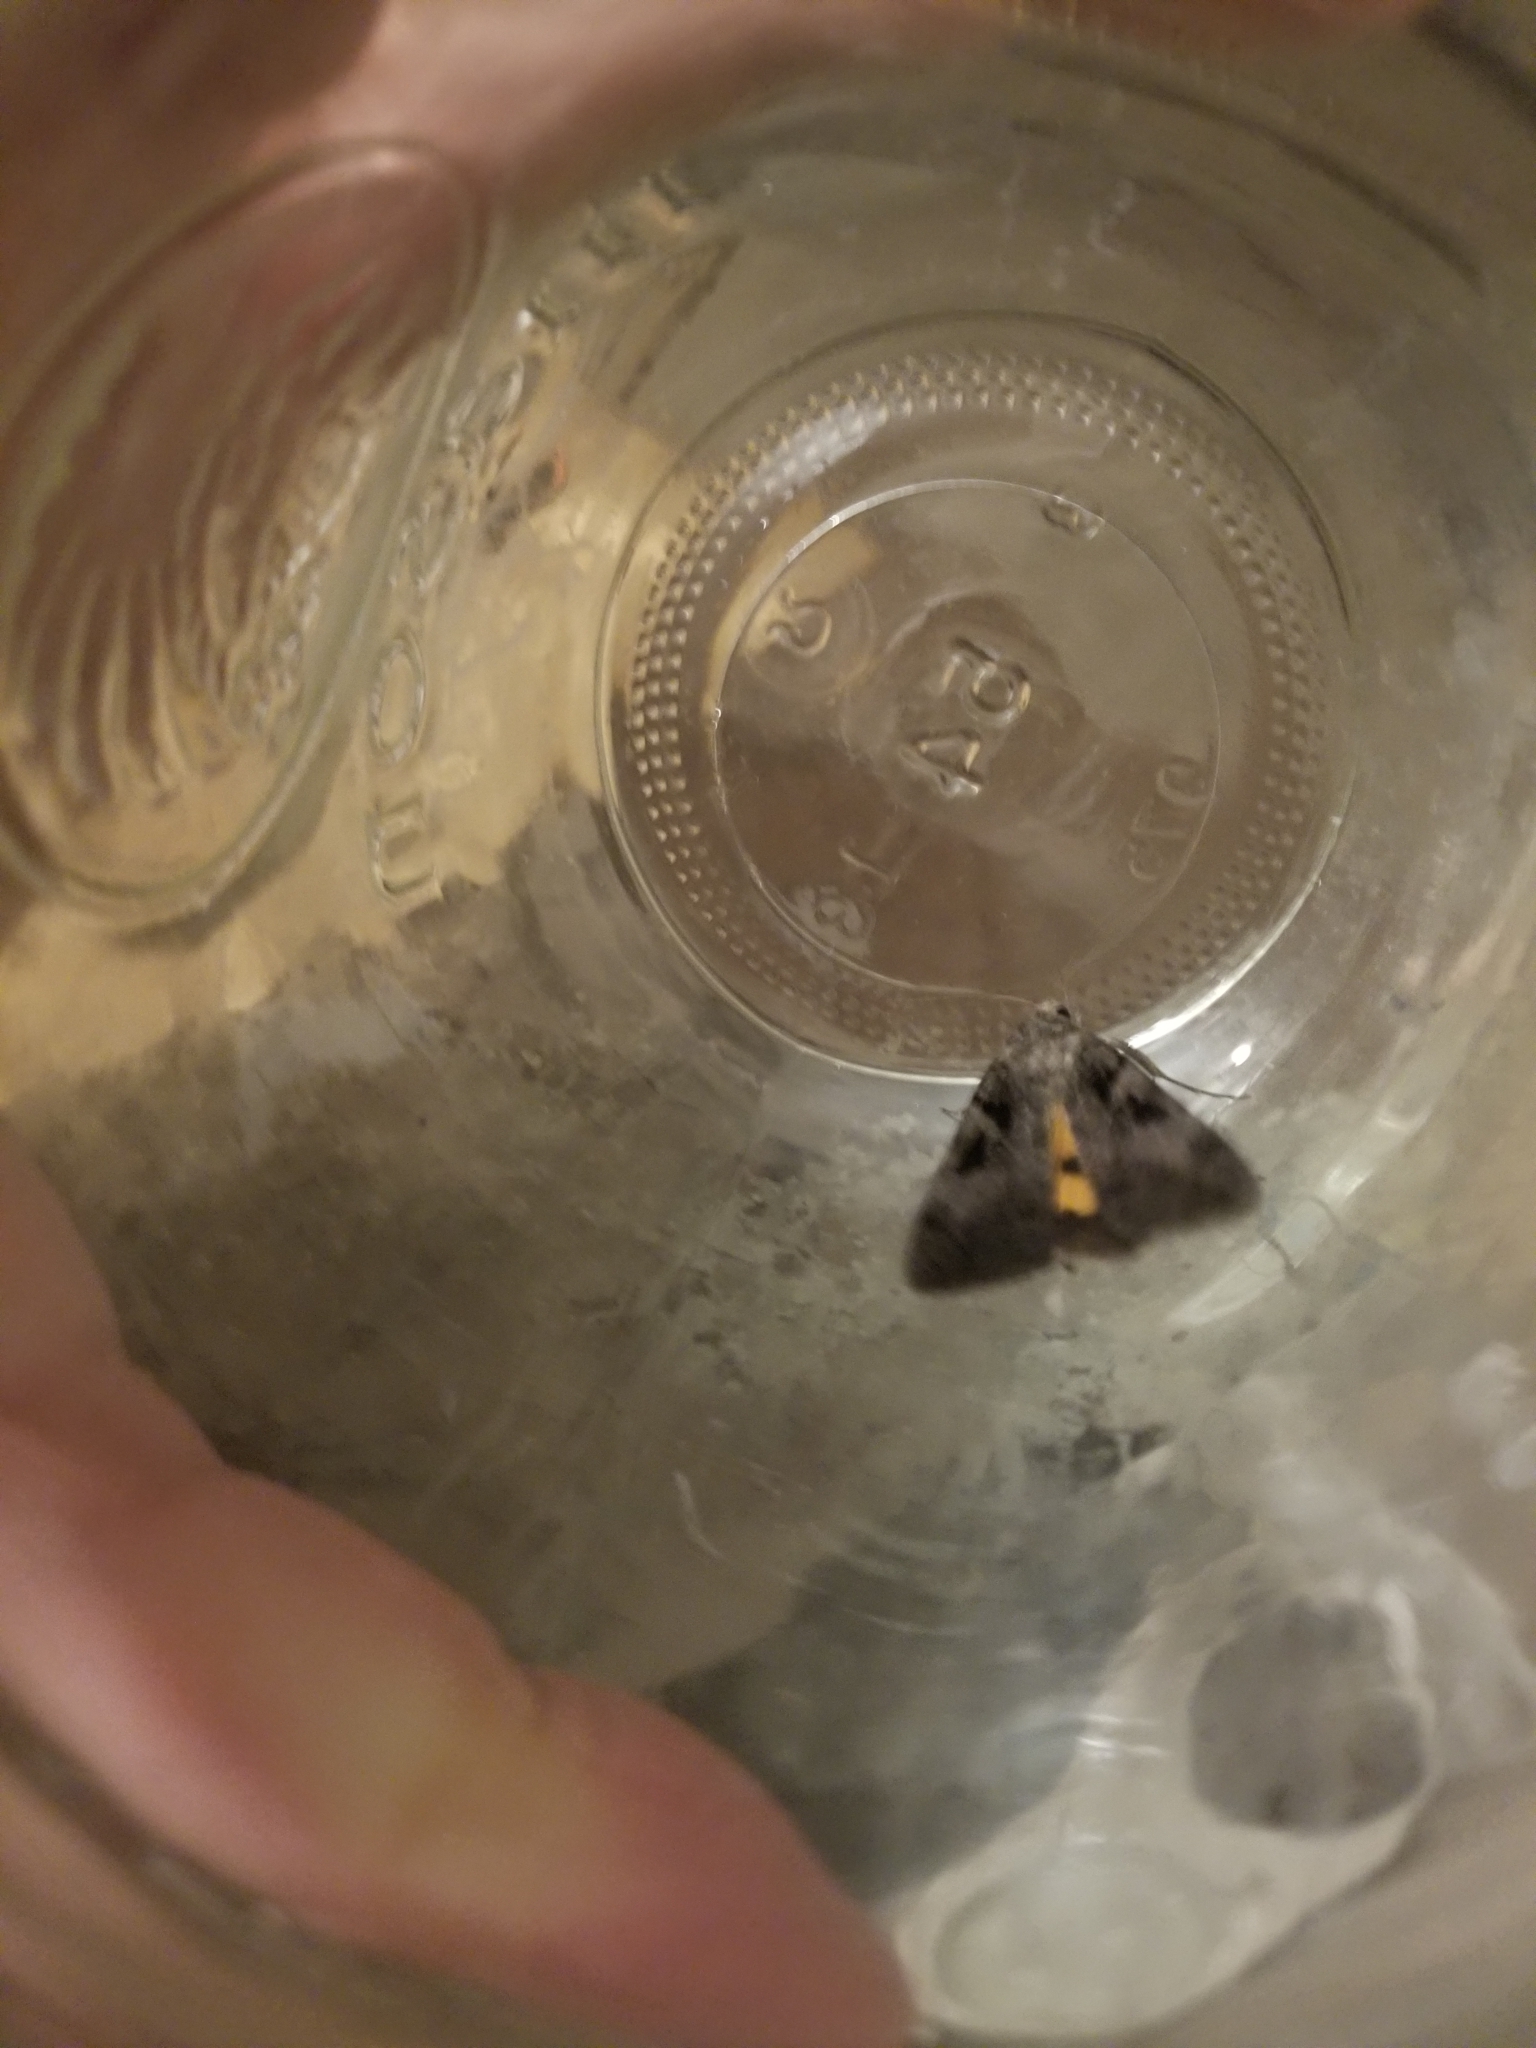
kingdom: Animalia
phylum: Arthropoda
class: Insecta
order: Lepidoptera
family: Erebidae
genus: Catocala
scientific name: Catocala whitneyi
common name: Whitney's underwing
